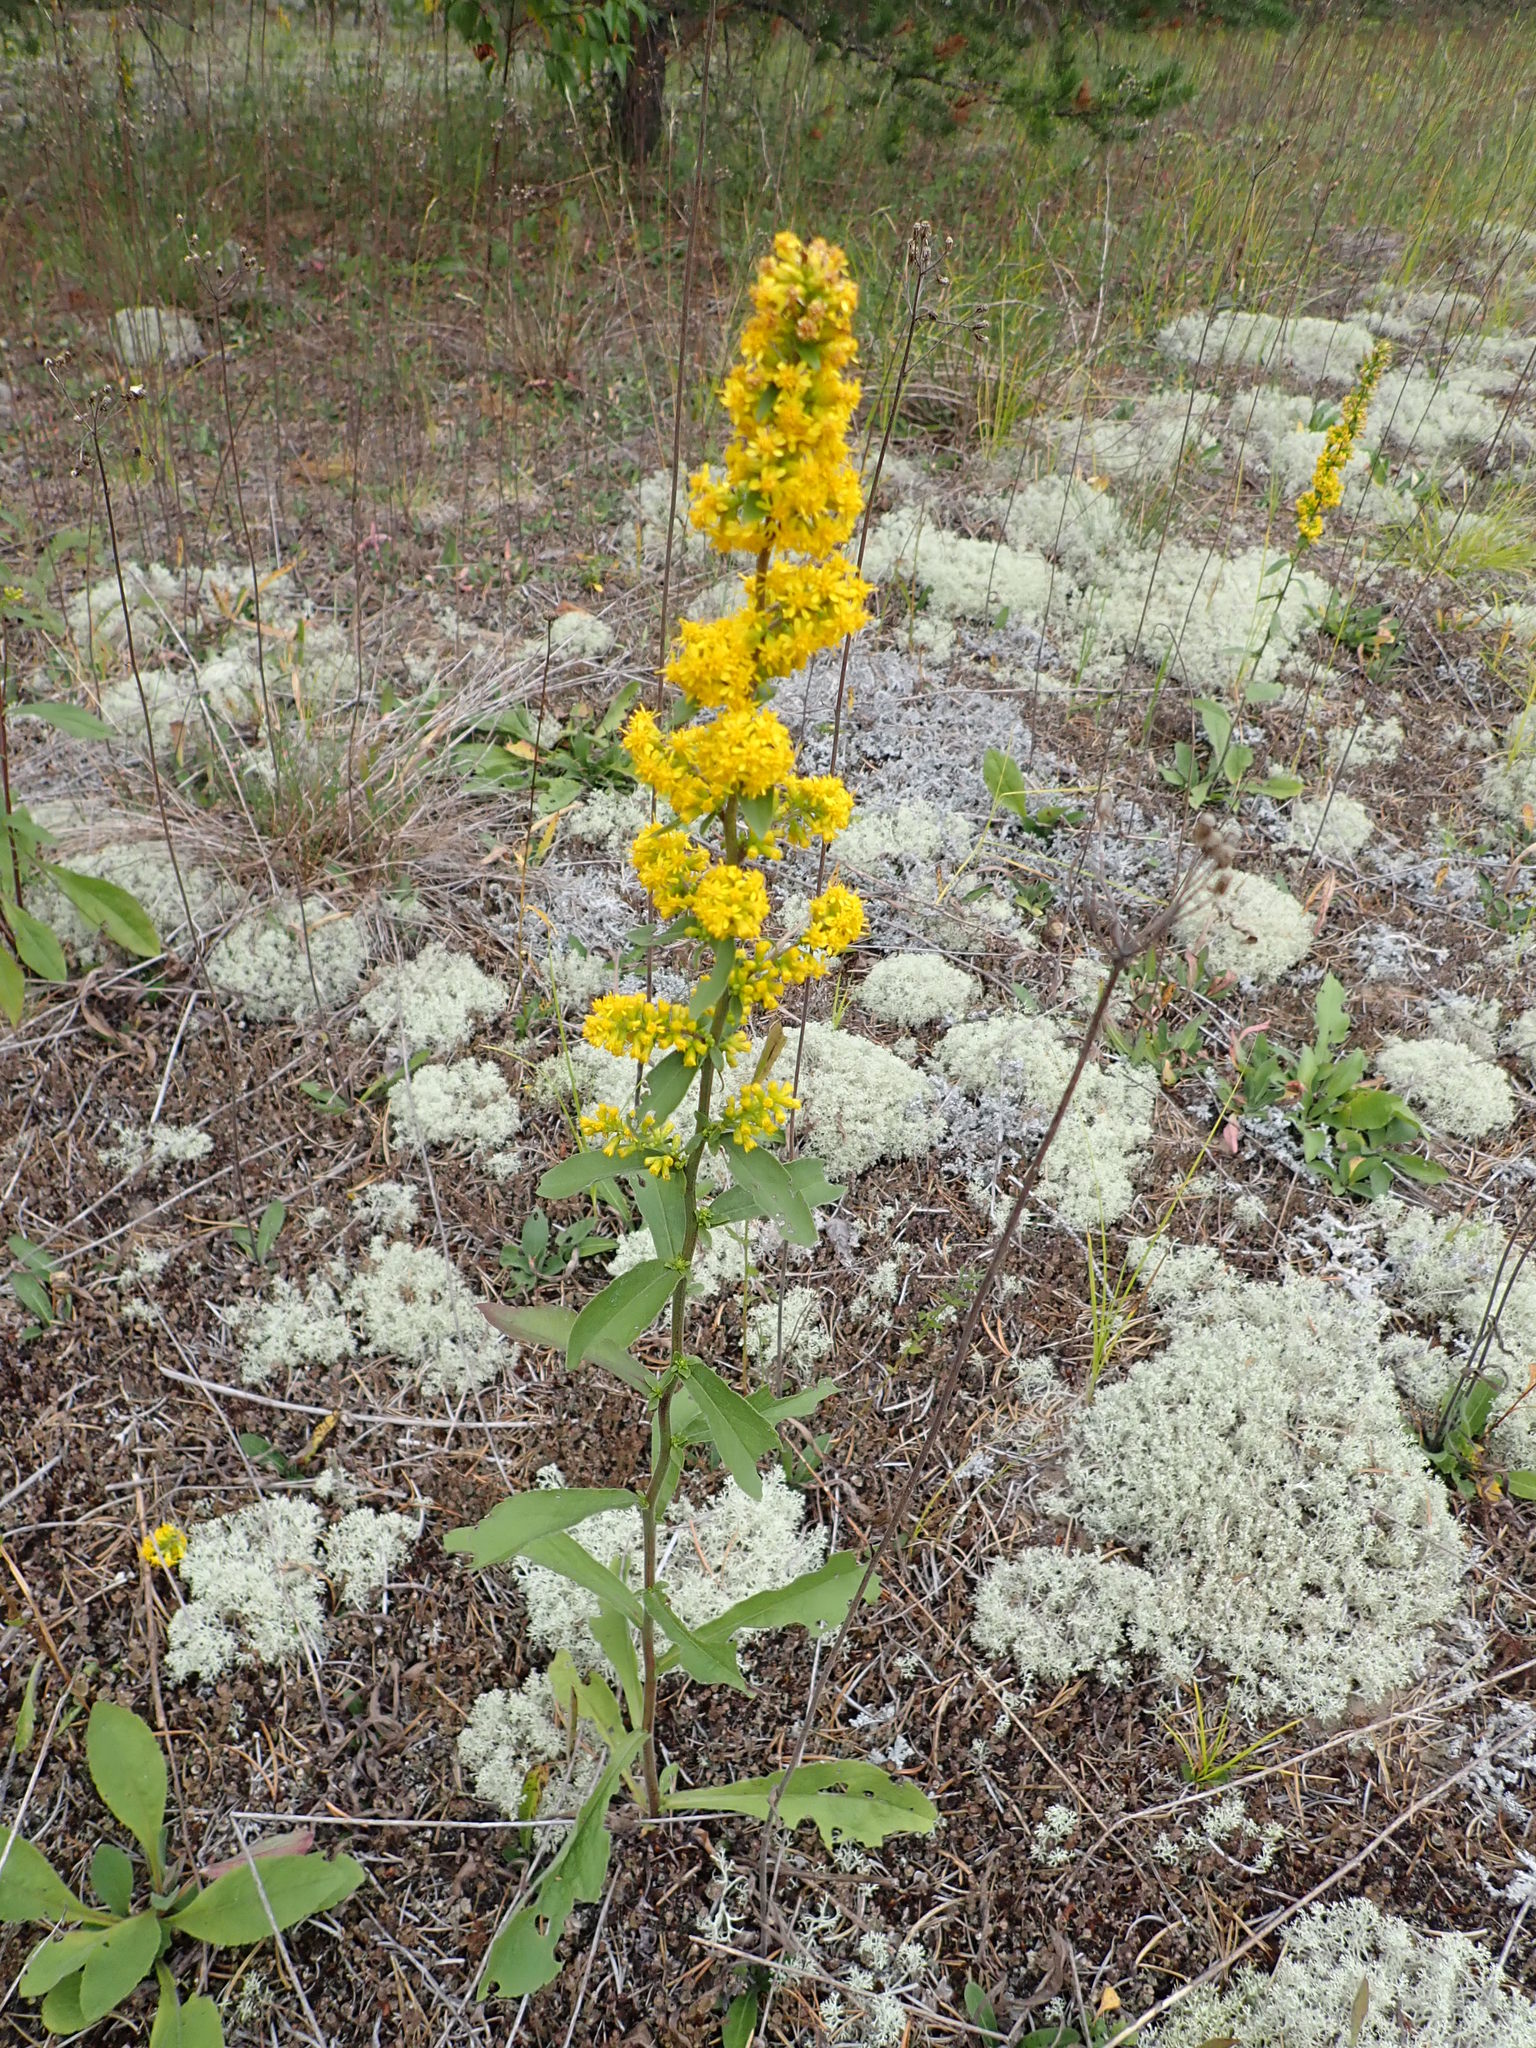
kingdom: Plantae
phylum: Tracheophyta
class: Magnoliopsida
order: Asterales
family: Asteraceae
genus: Solidago
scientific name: Solidago hispida
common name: Hairy goldenrod
